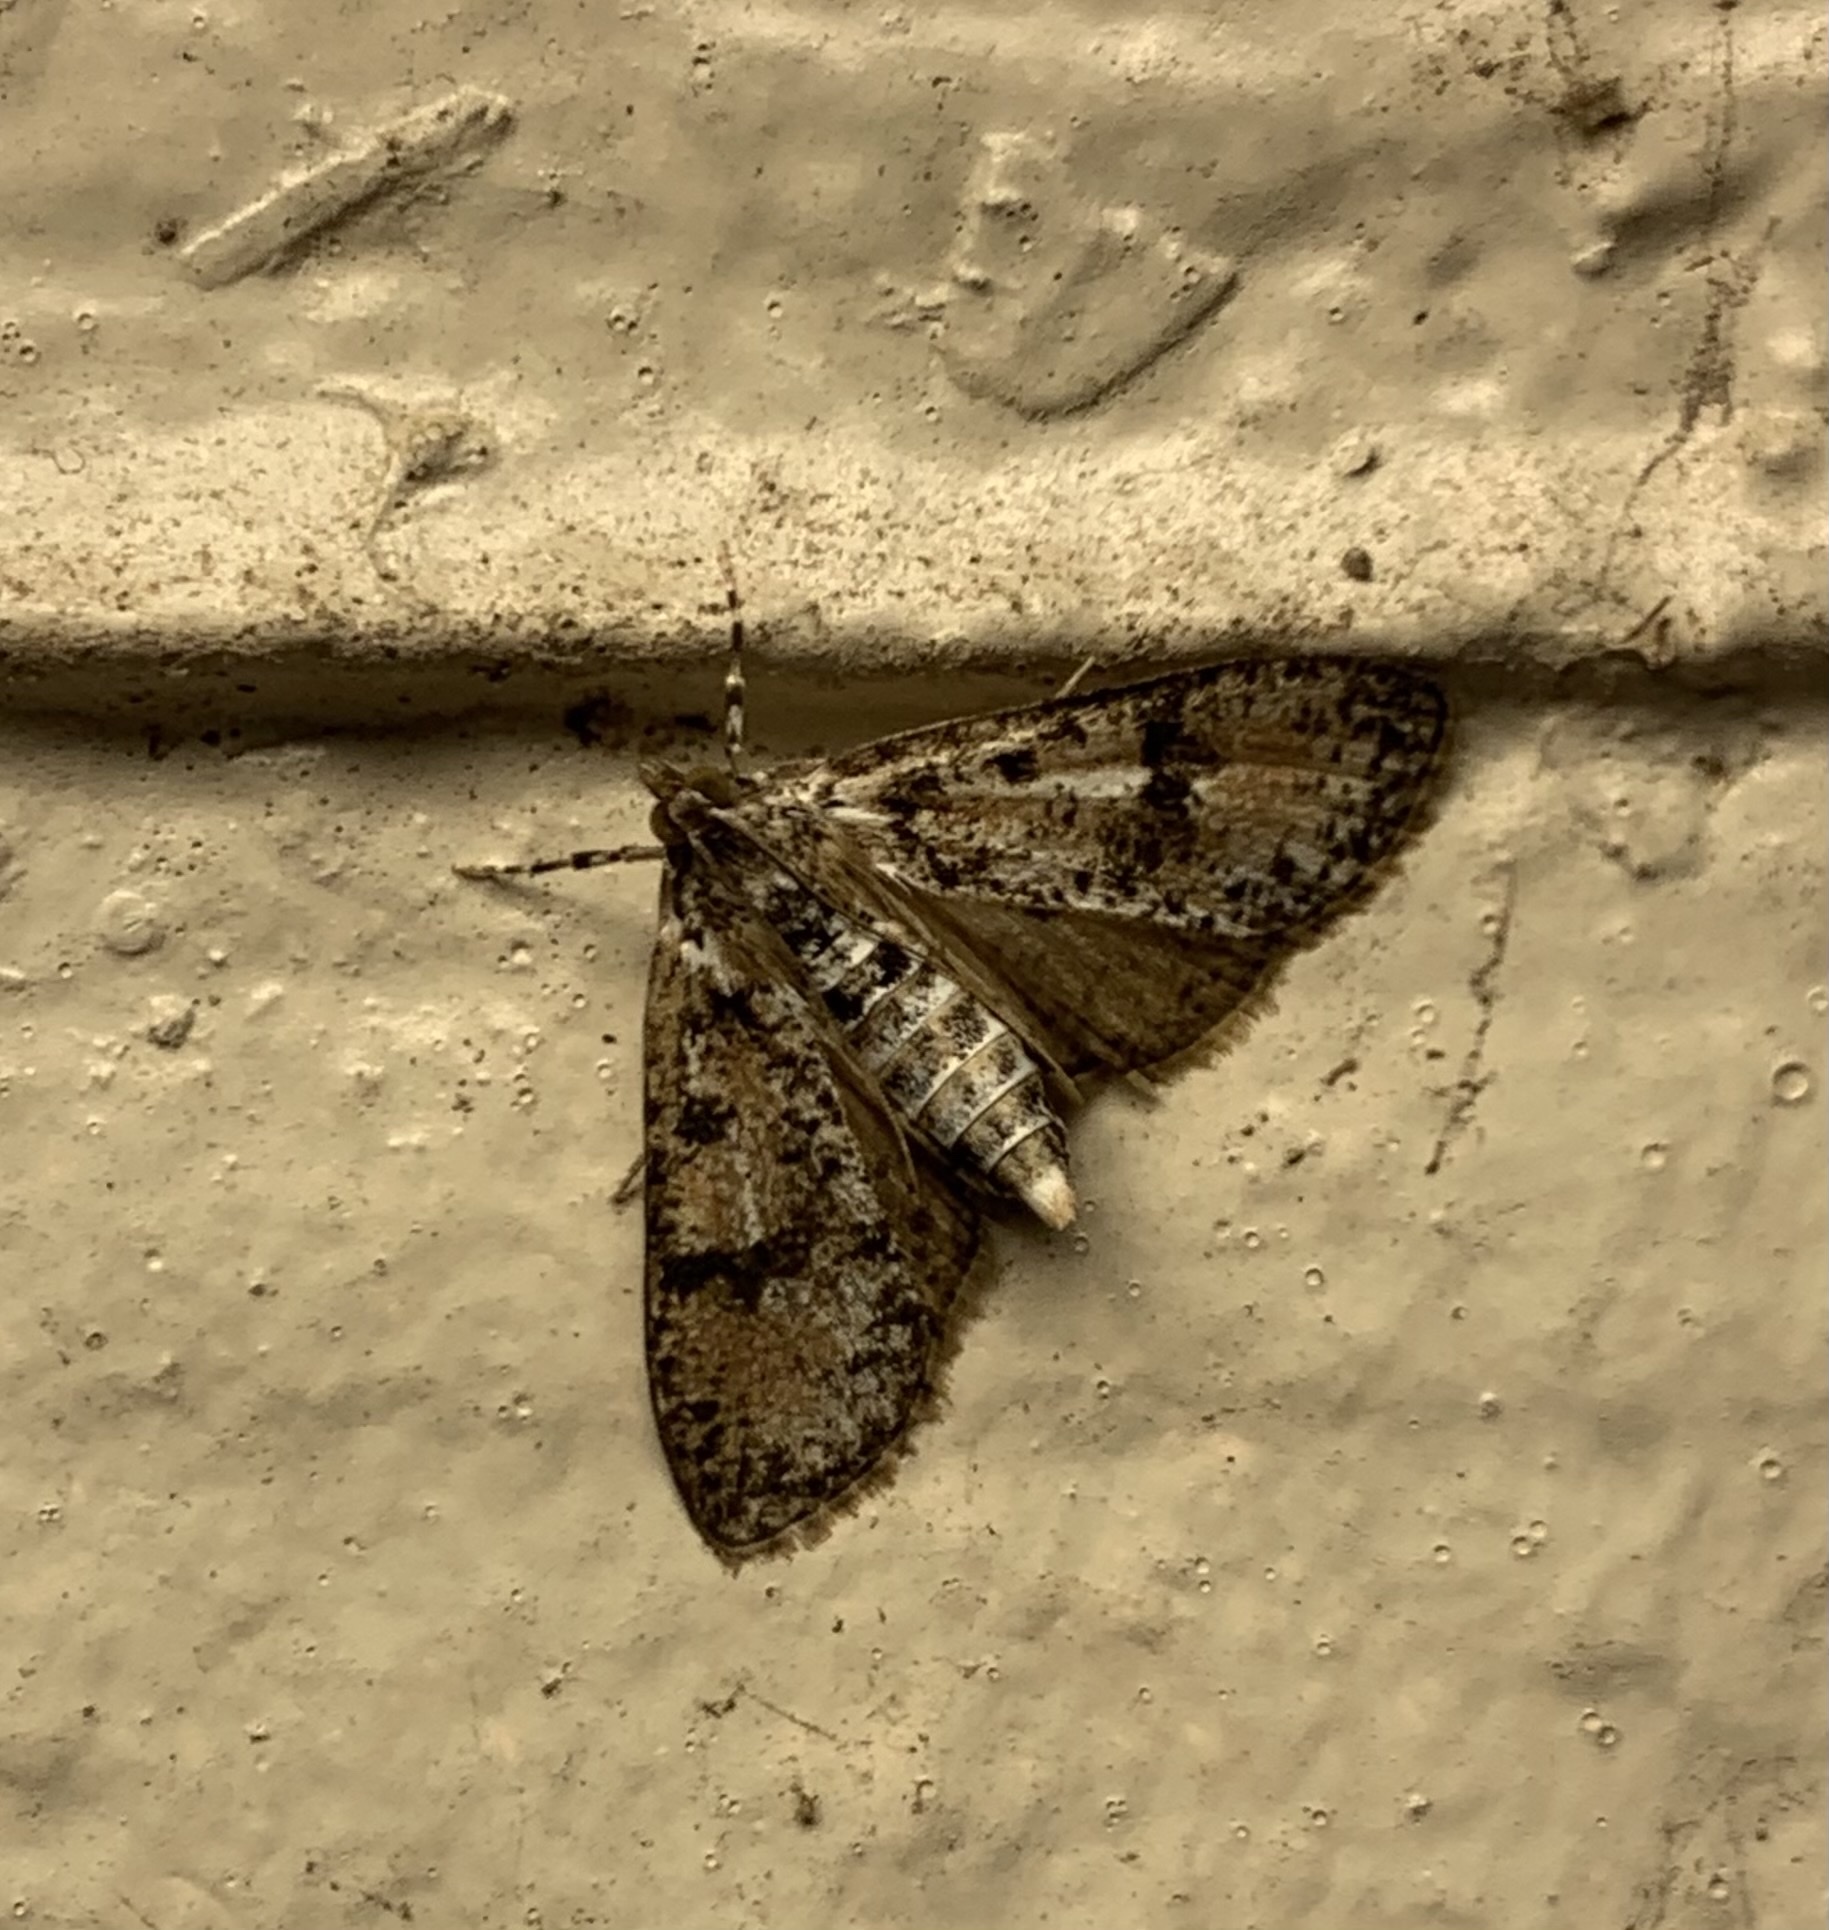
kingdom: Animalia
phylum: Arthropoda
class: Insecta
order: Lepidoptera
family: Crambidae
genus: Palpita
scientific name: Palpita magniferalis
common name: Splendid palpita moth
